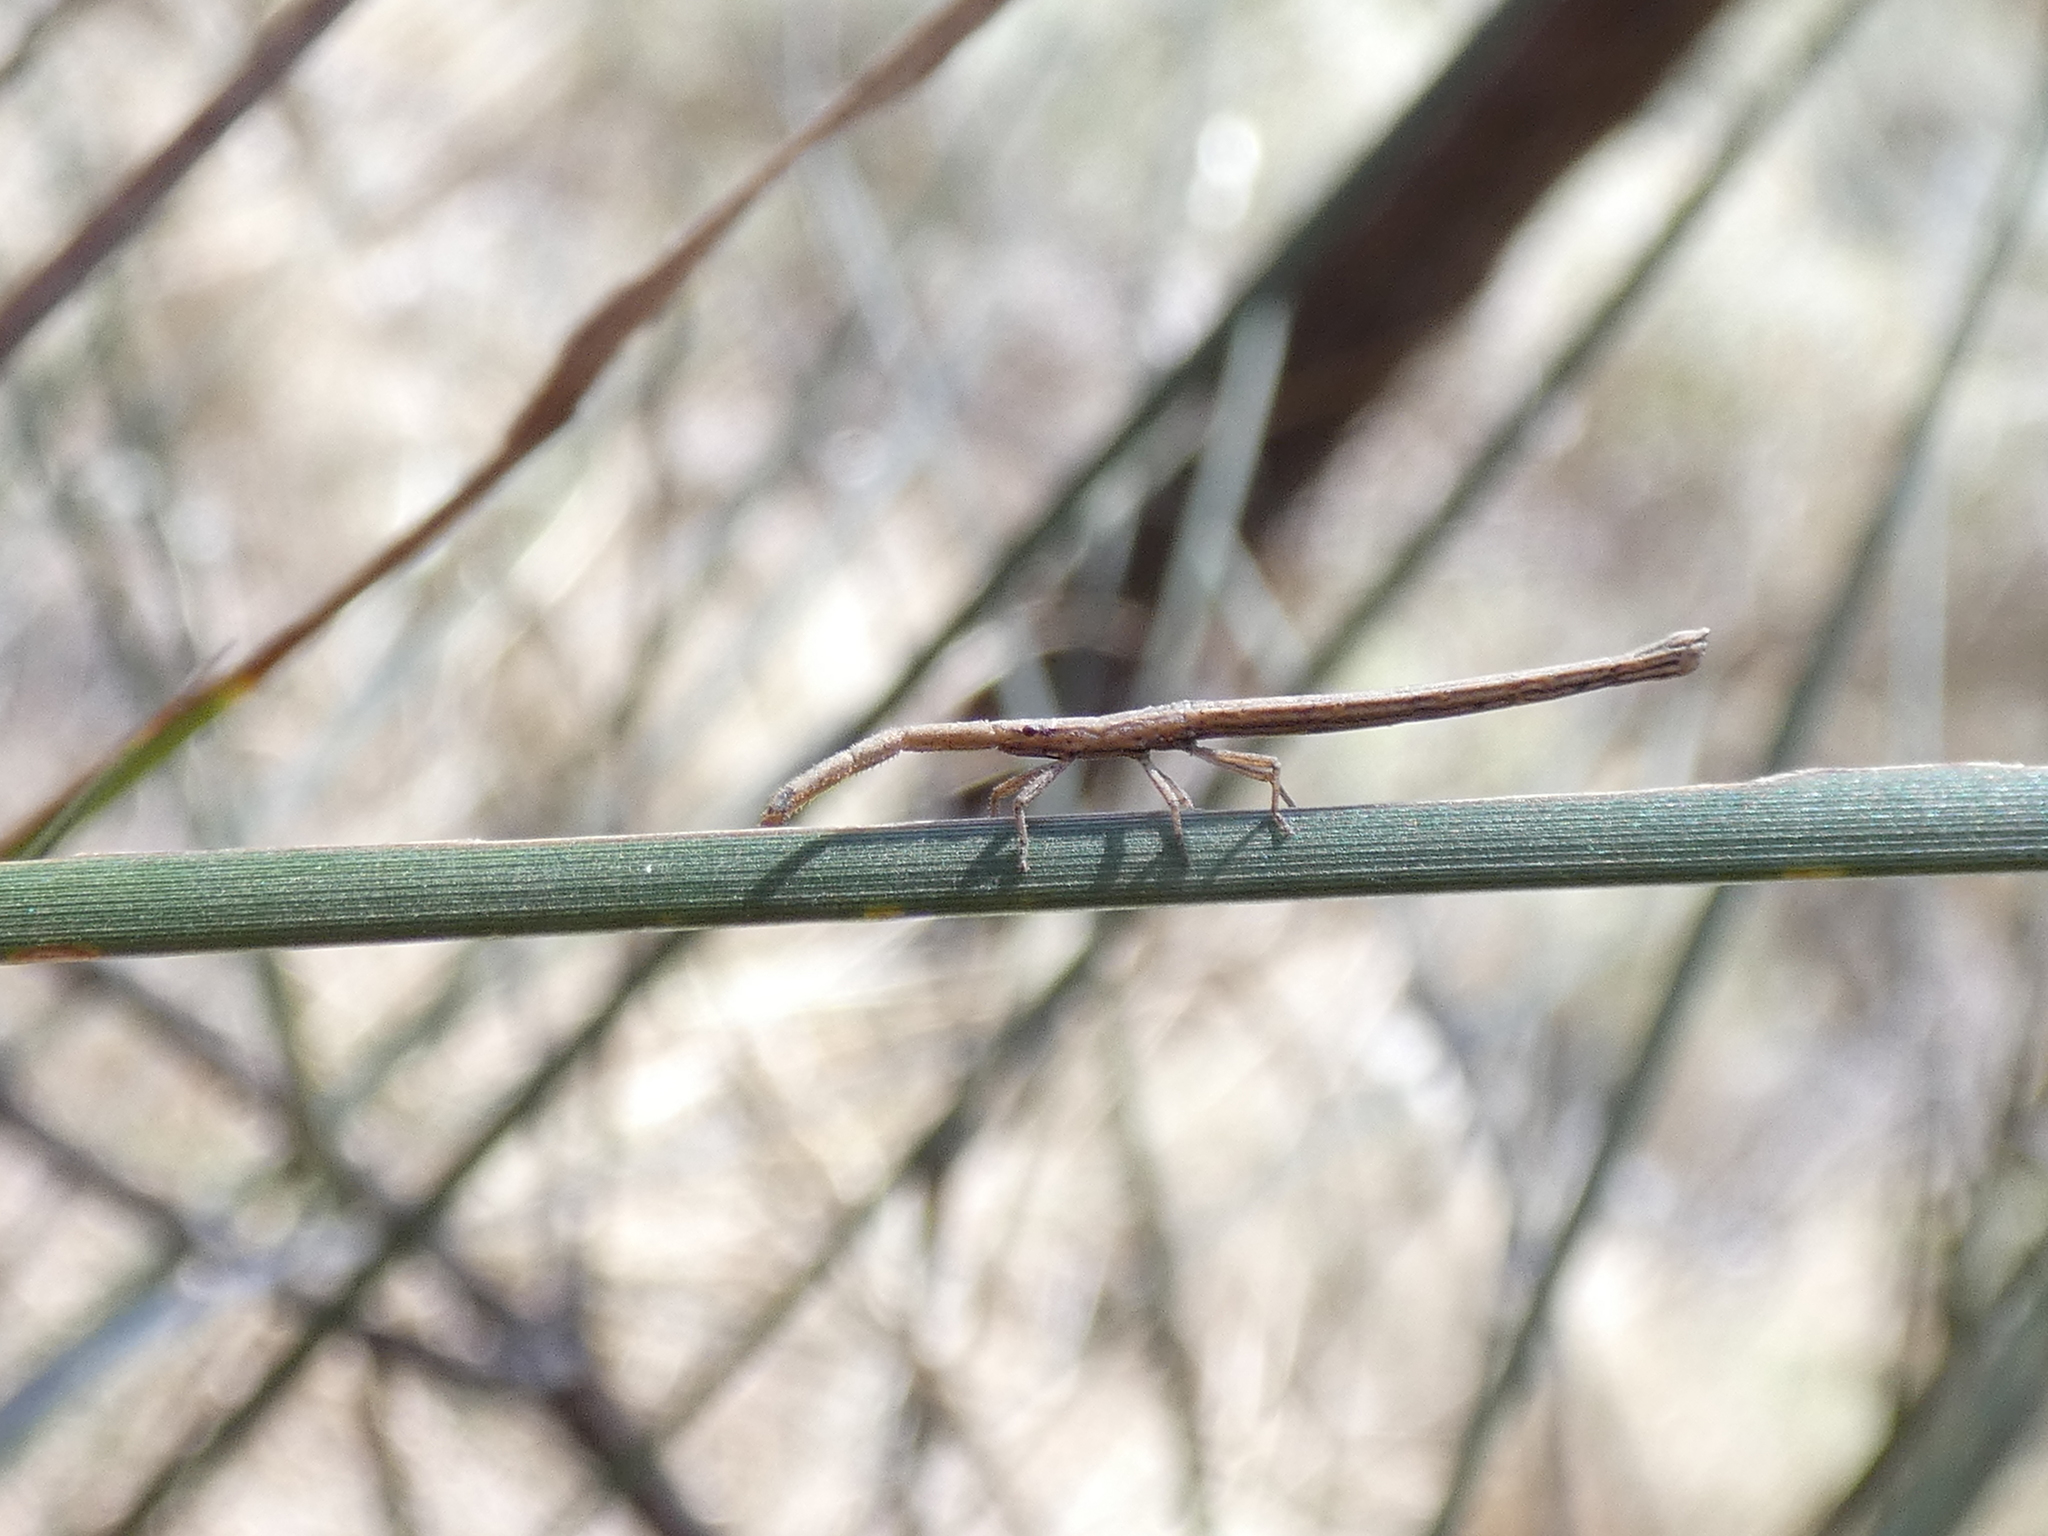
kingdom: Animalia
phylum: Arthropoda
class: Insecta
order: Hemiptera
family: Coreidae
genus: Tylocryptus
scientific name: Tylocryptus egenus
